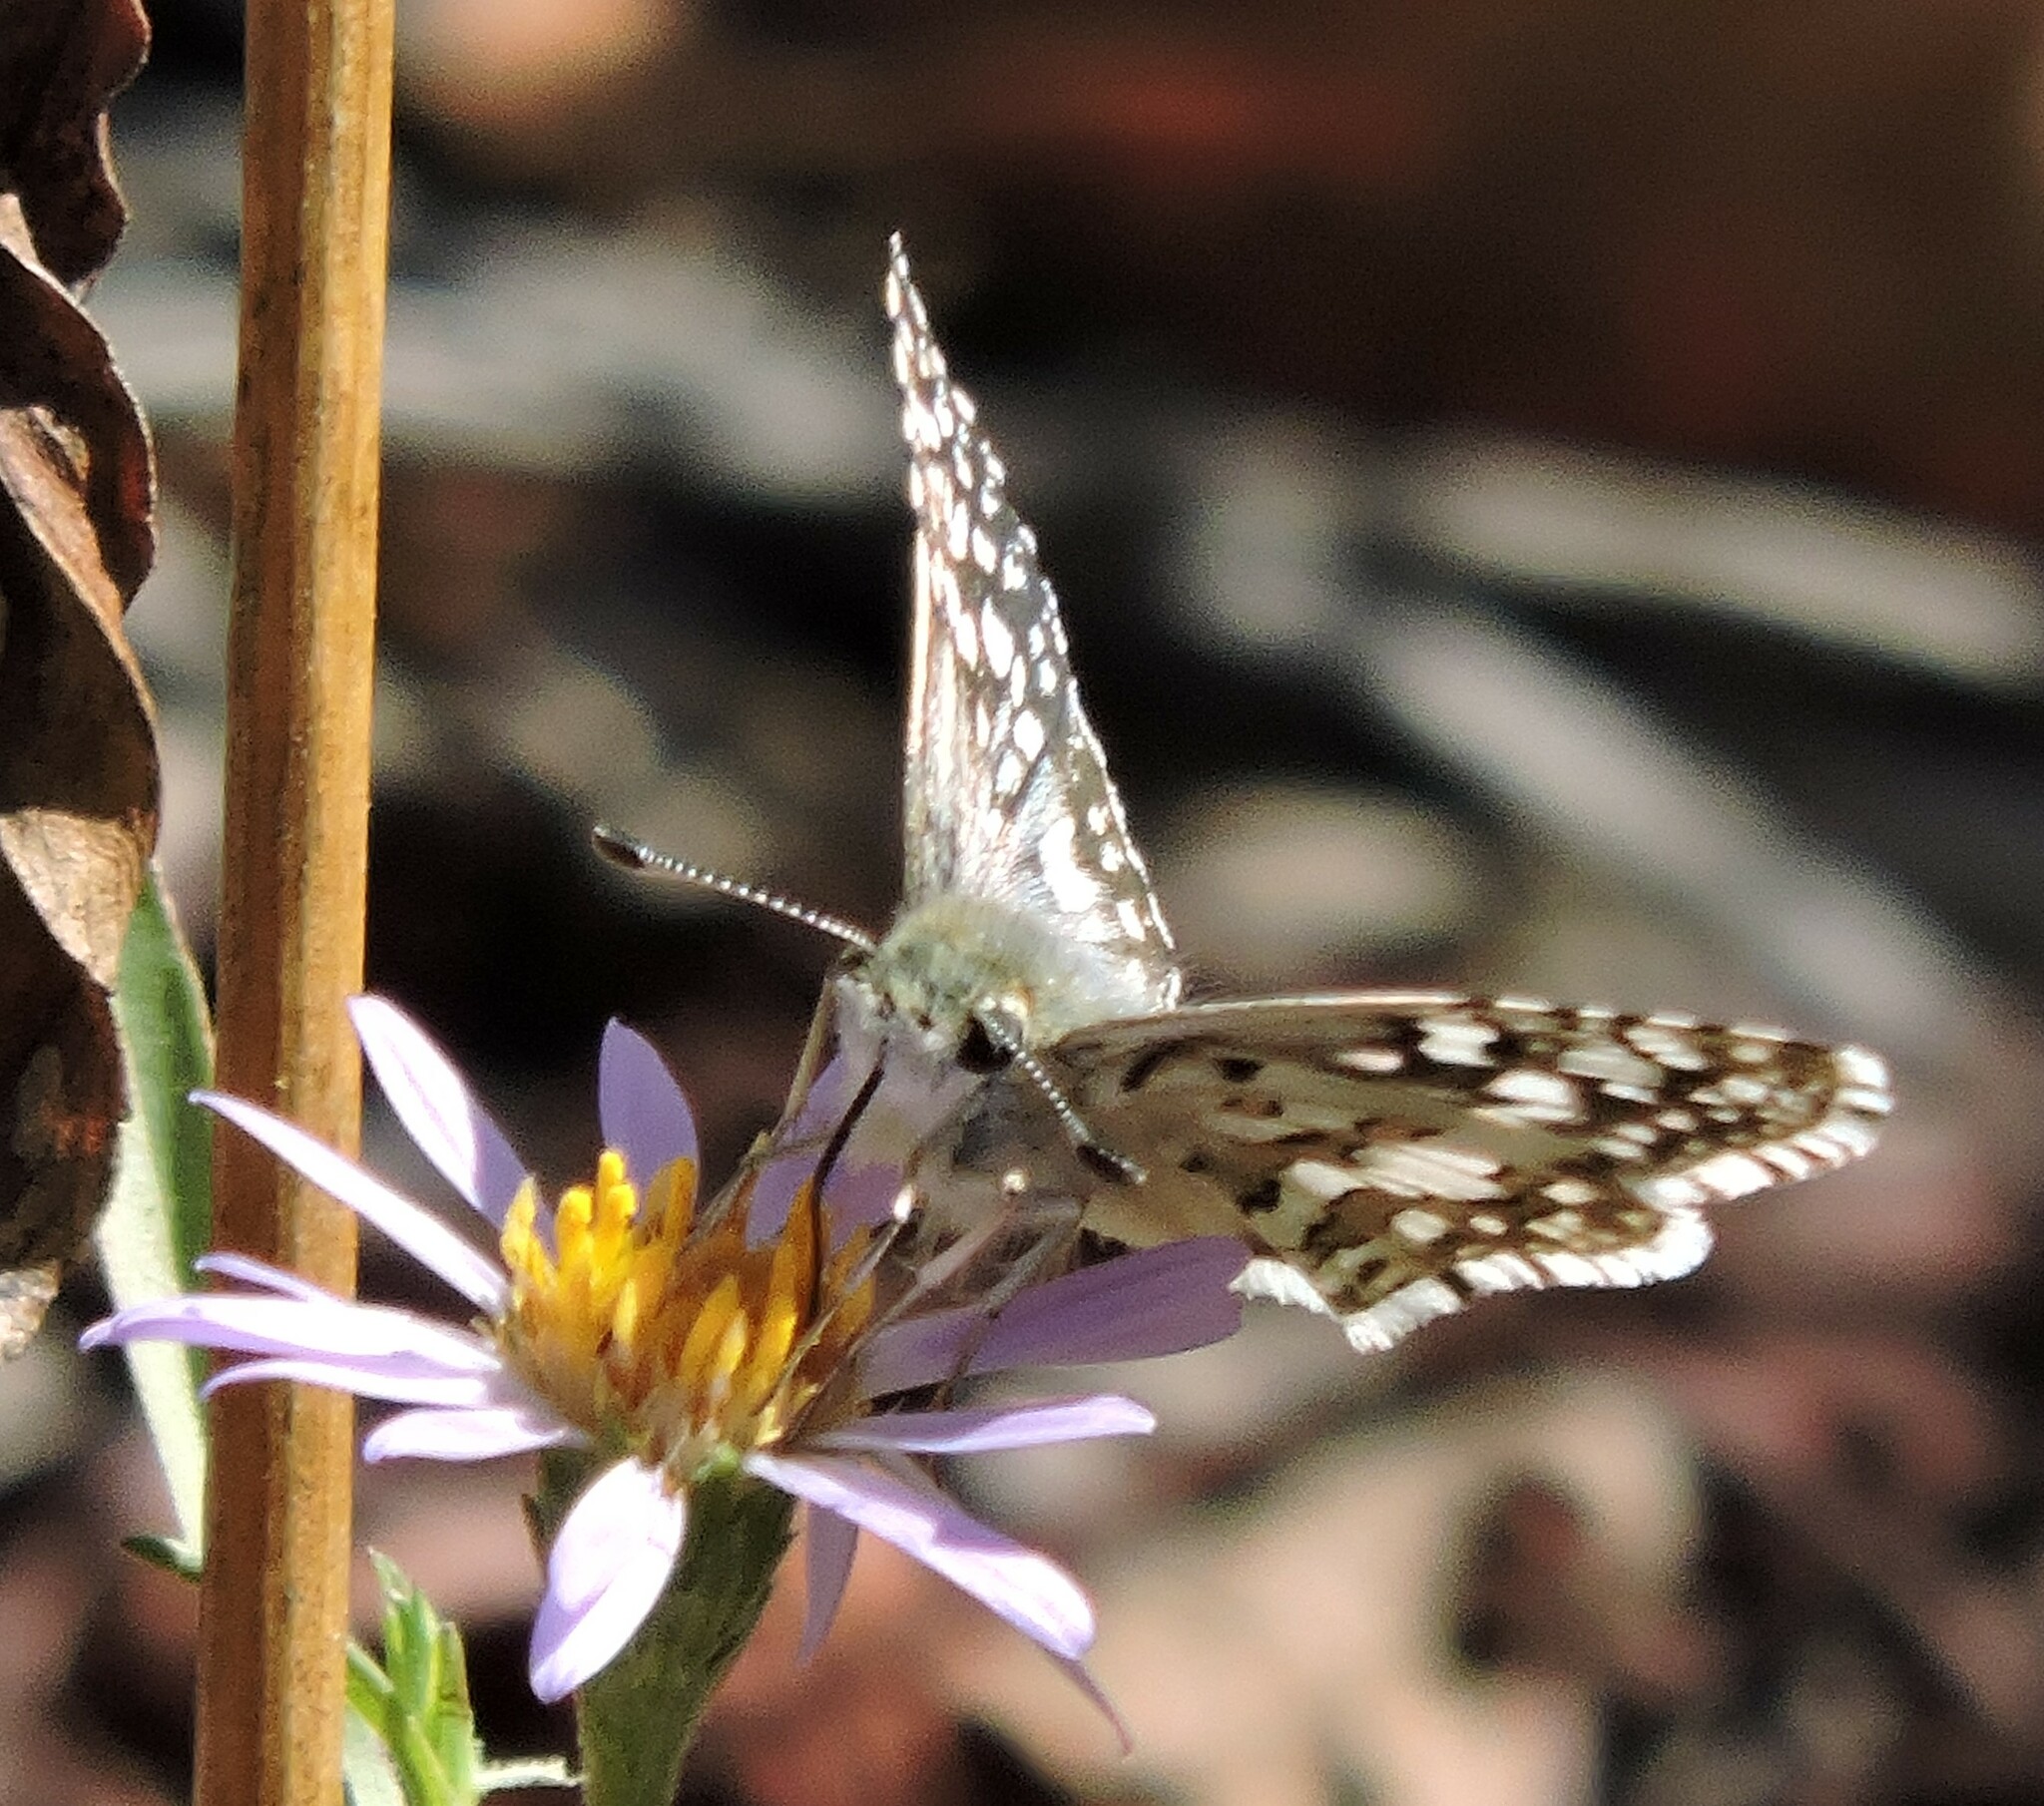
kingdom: Animalia
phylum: Arthropoda
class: Insecta
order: Lepidoptera
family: Hesperiidae
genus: Burnsius
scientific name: Burnsius communis
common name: Common checkered-skipper
